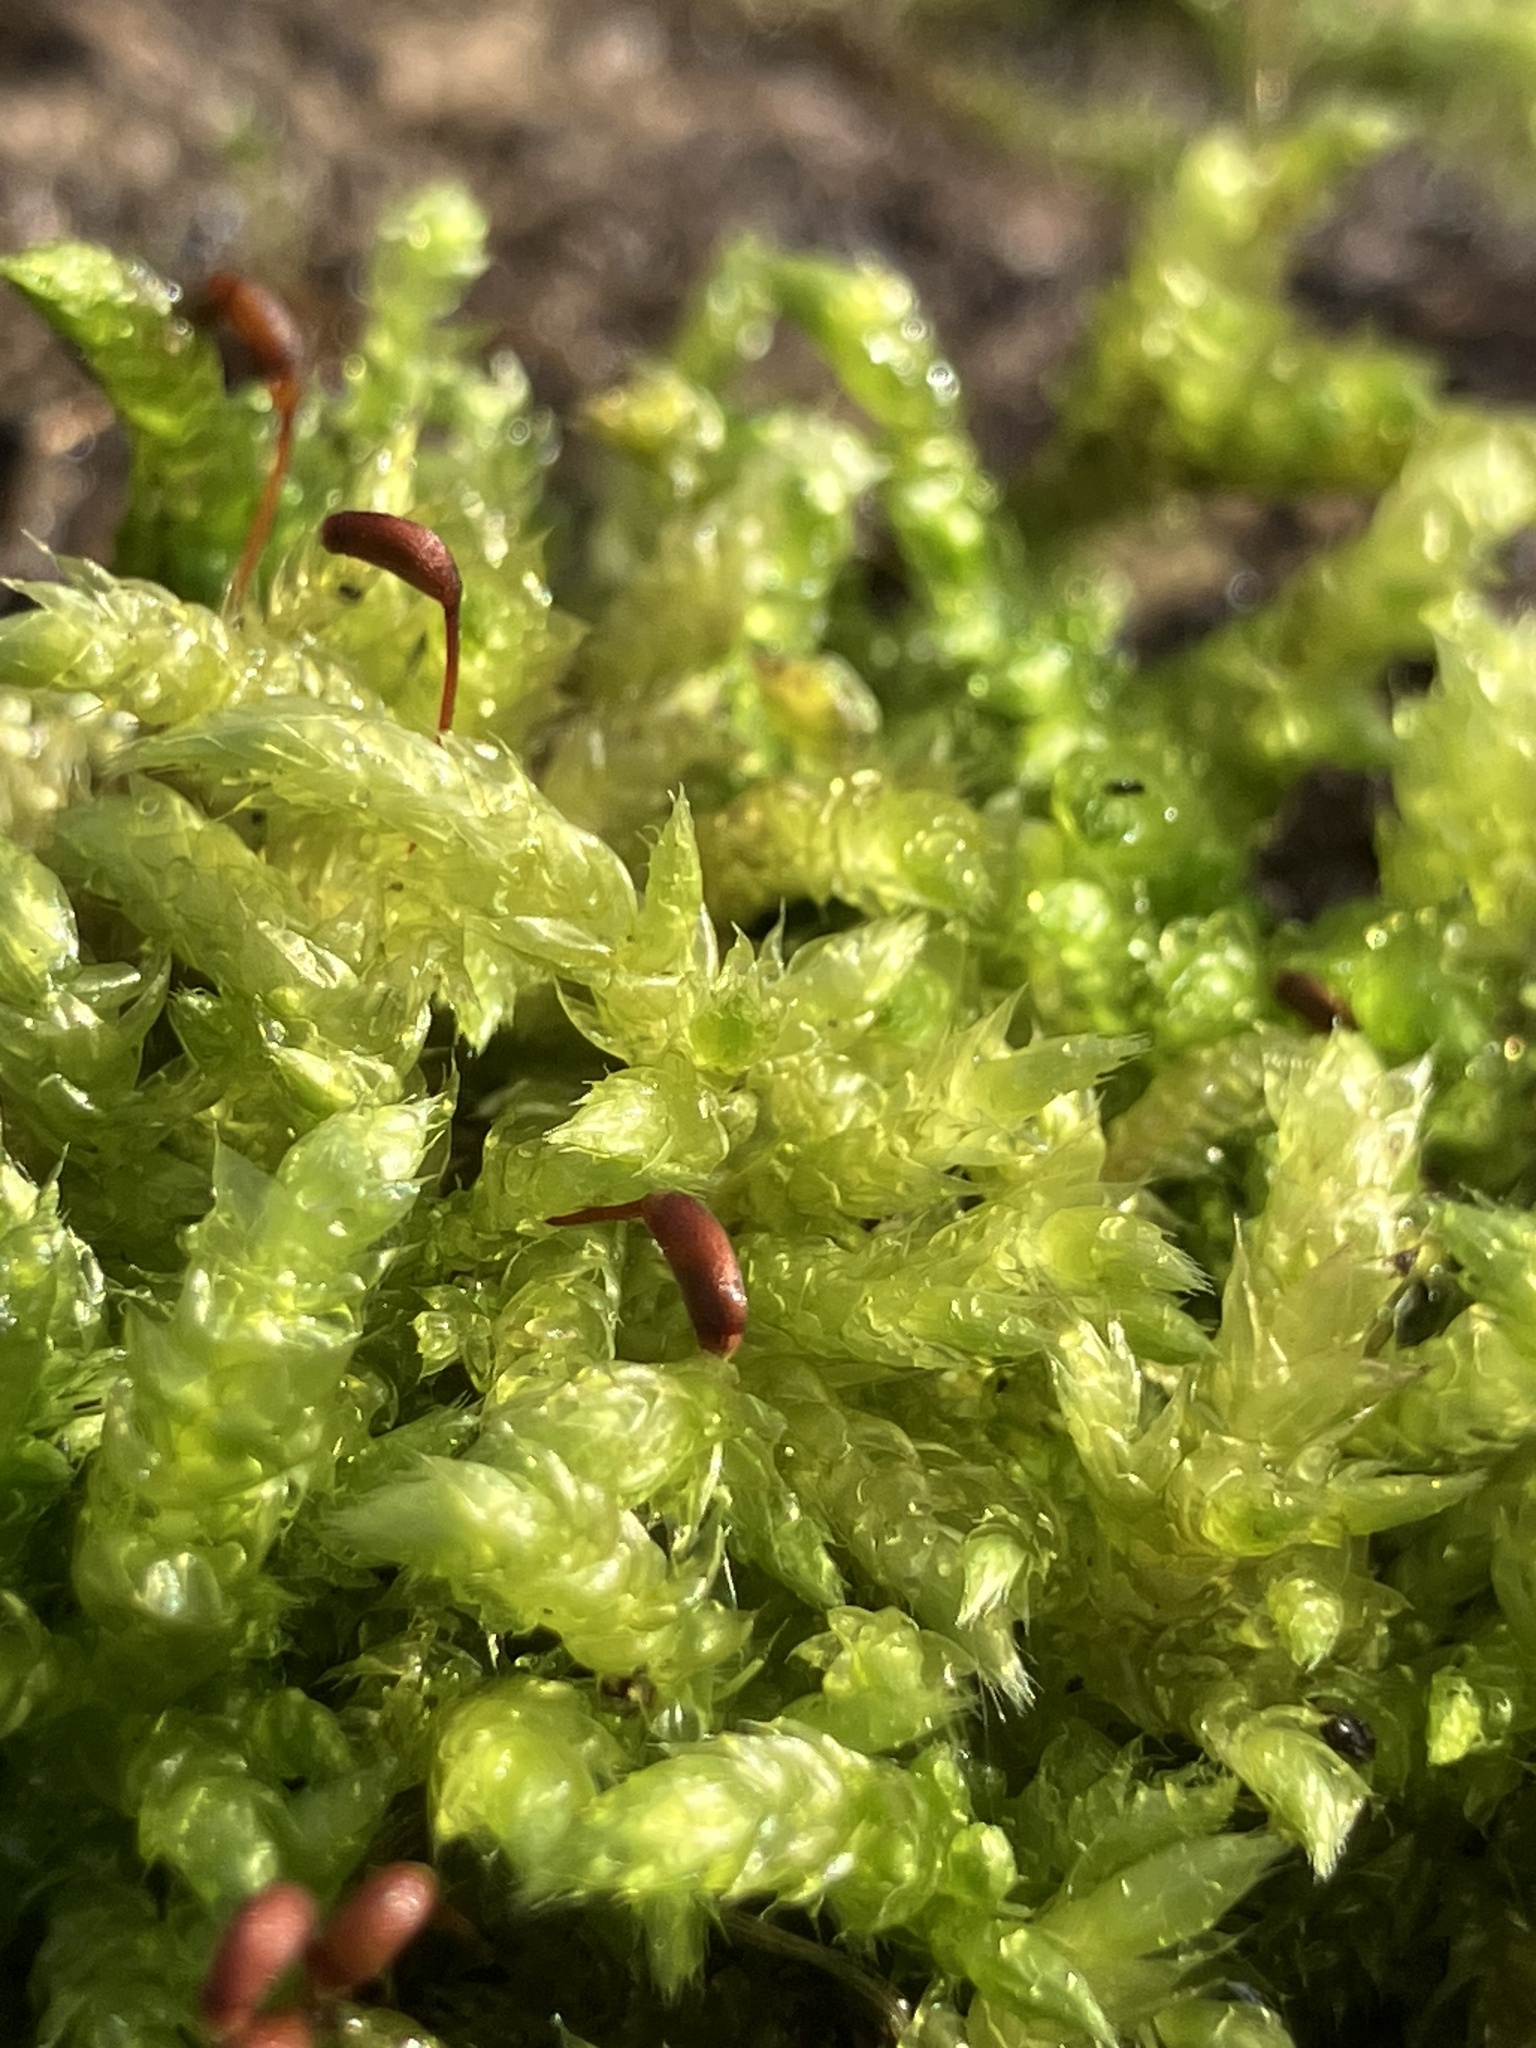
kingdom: Plantae
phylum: Bryophyta
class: Bryopsida
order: Hypnales
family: Brachytheciaceae
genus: Brachythecium
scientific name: Brachythecium rutabulum
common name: Rough-stalked feather-moss
